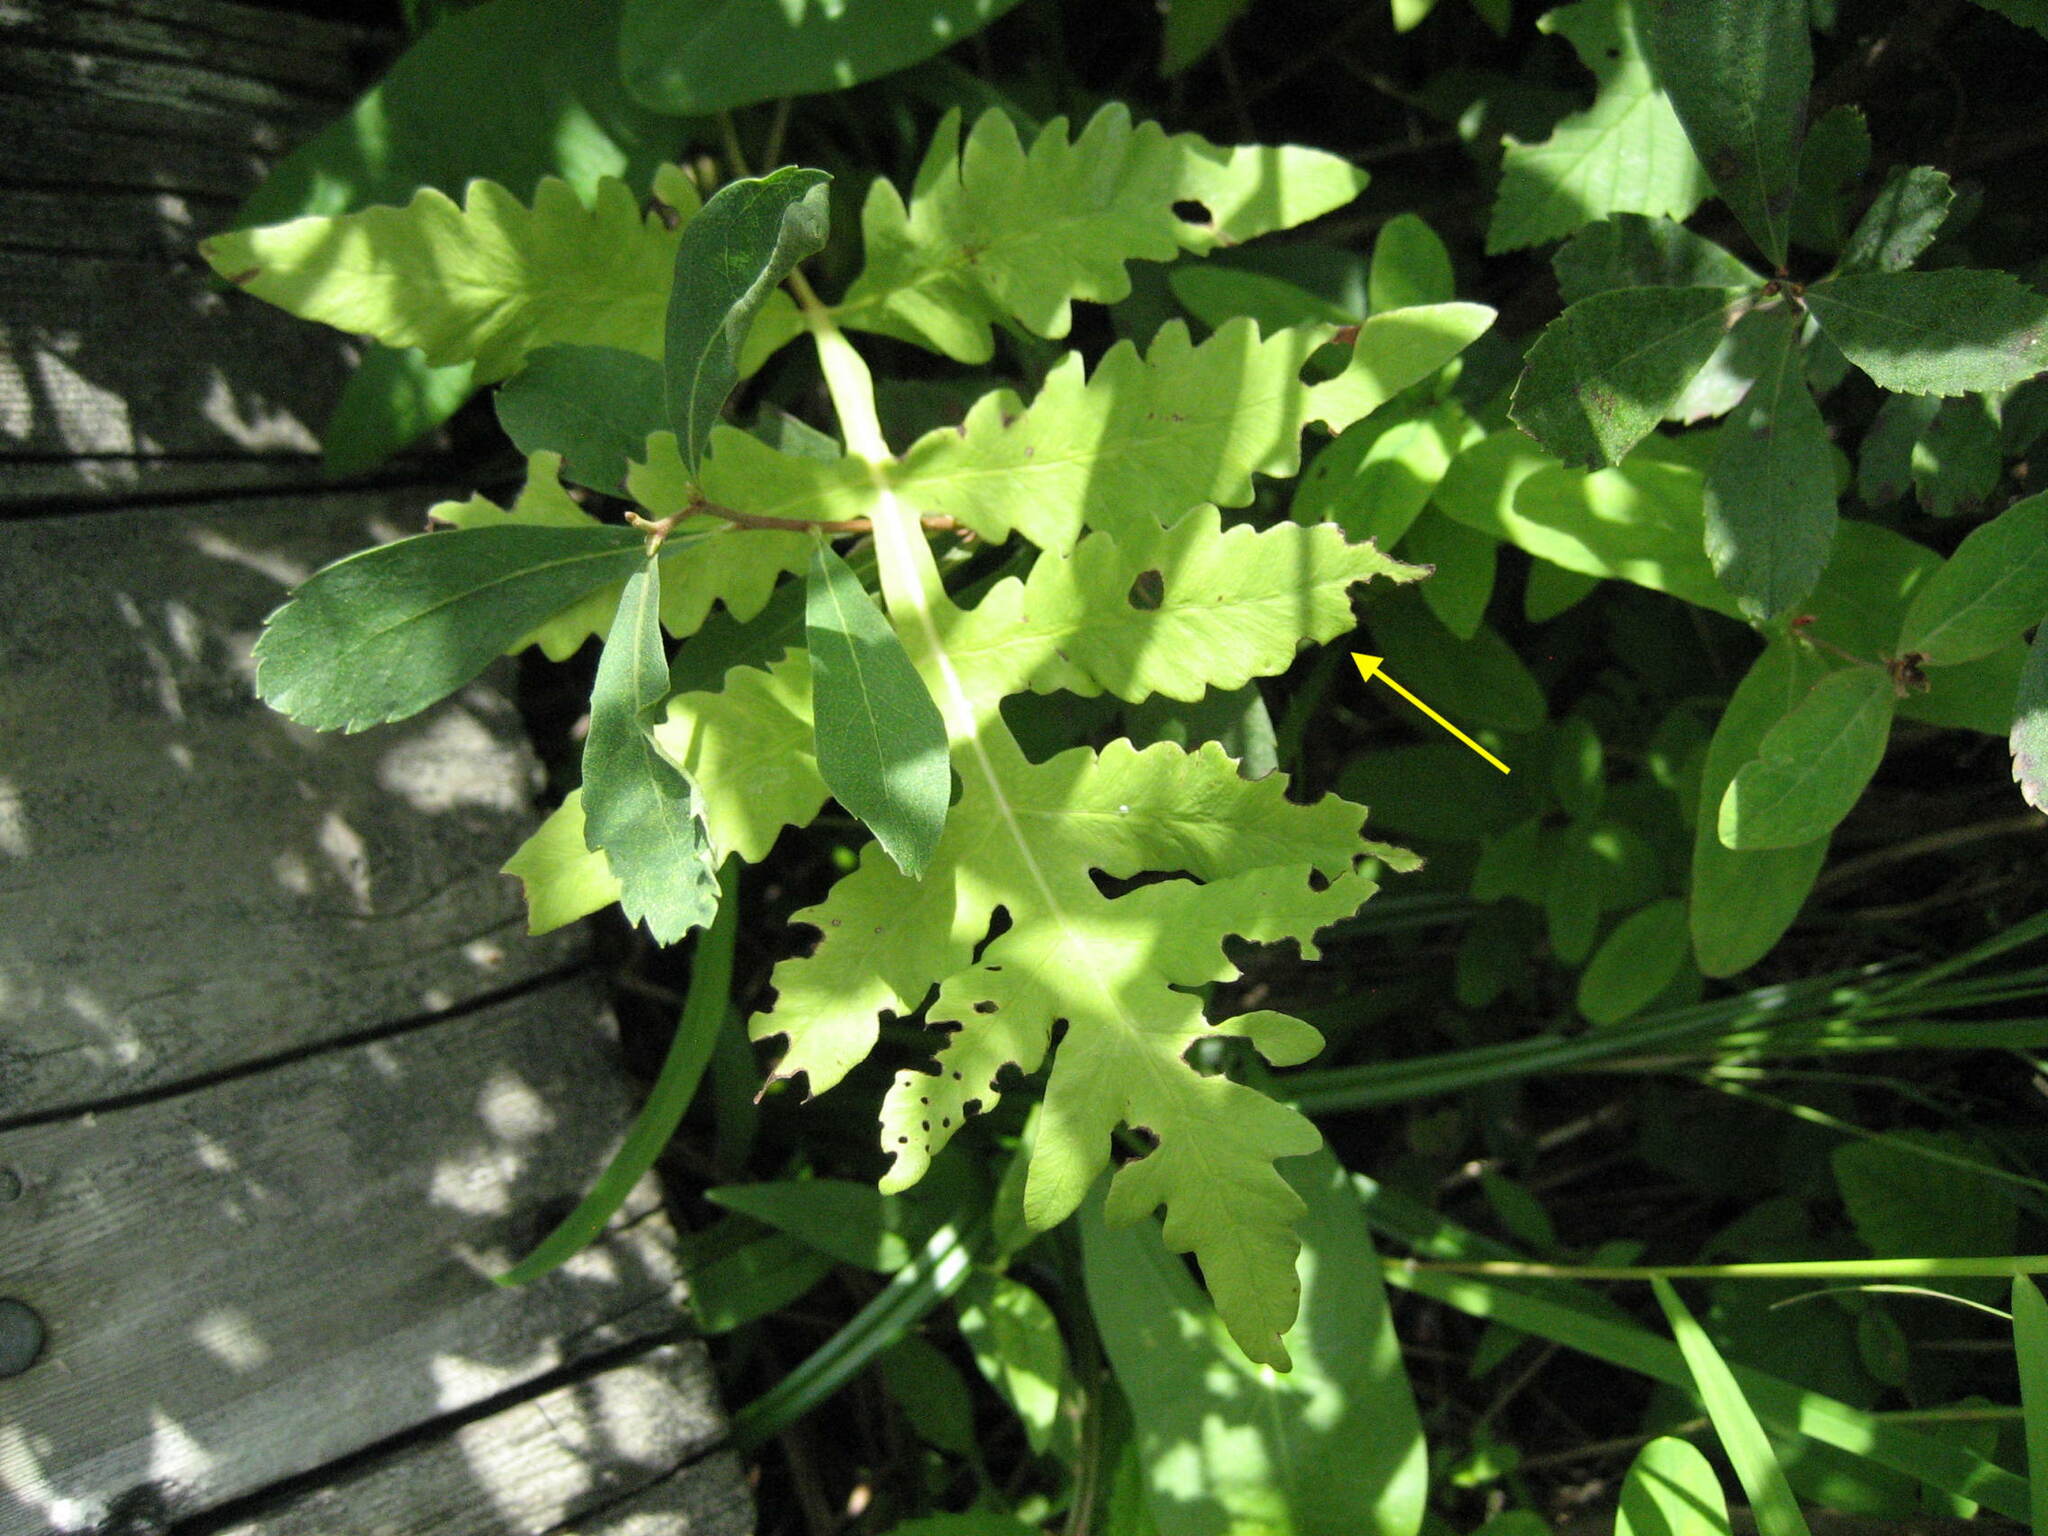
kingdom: Plantae
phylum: Tracheophyta
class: Polypodiopsida
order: Polypodiales
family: Onocleaceae
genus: Onoclea
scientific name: Onoclea sensibilis
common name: Sensitive fern
